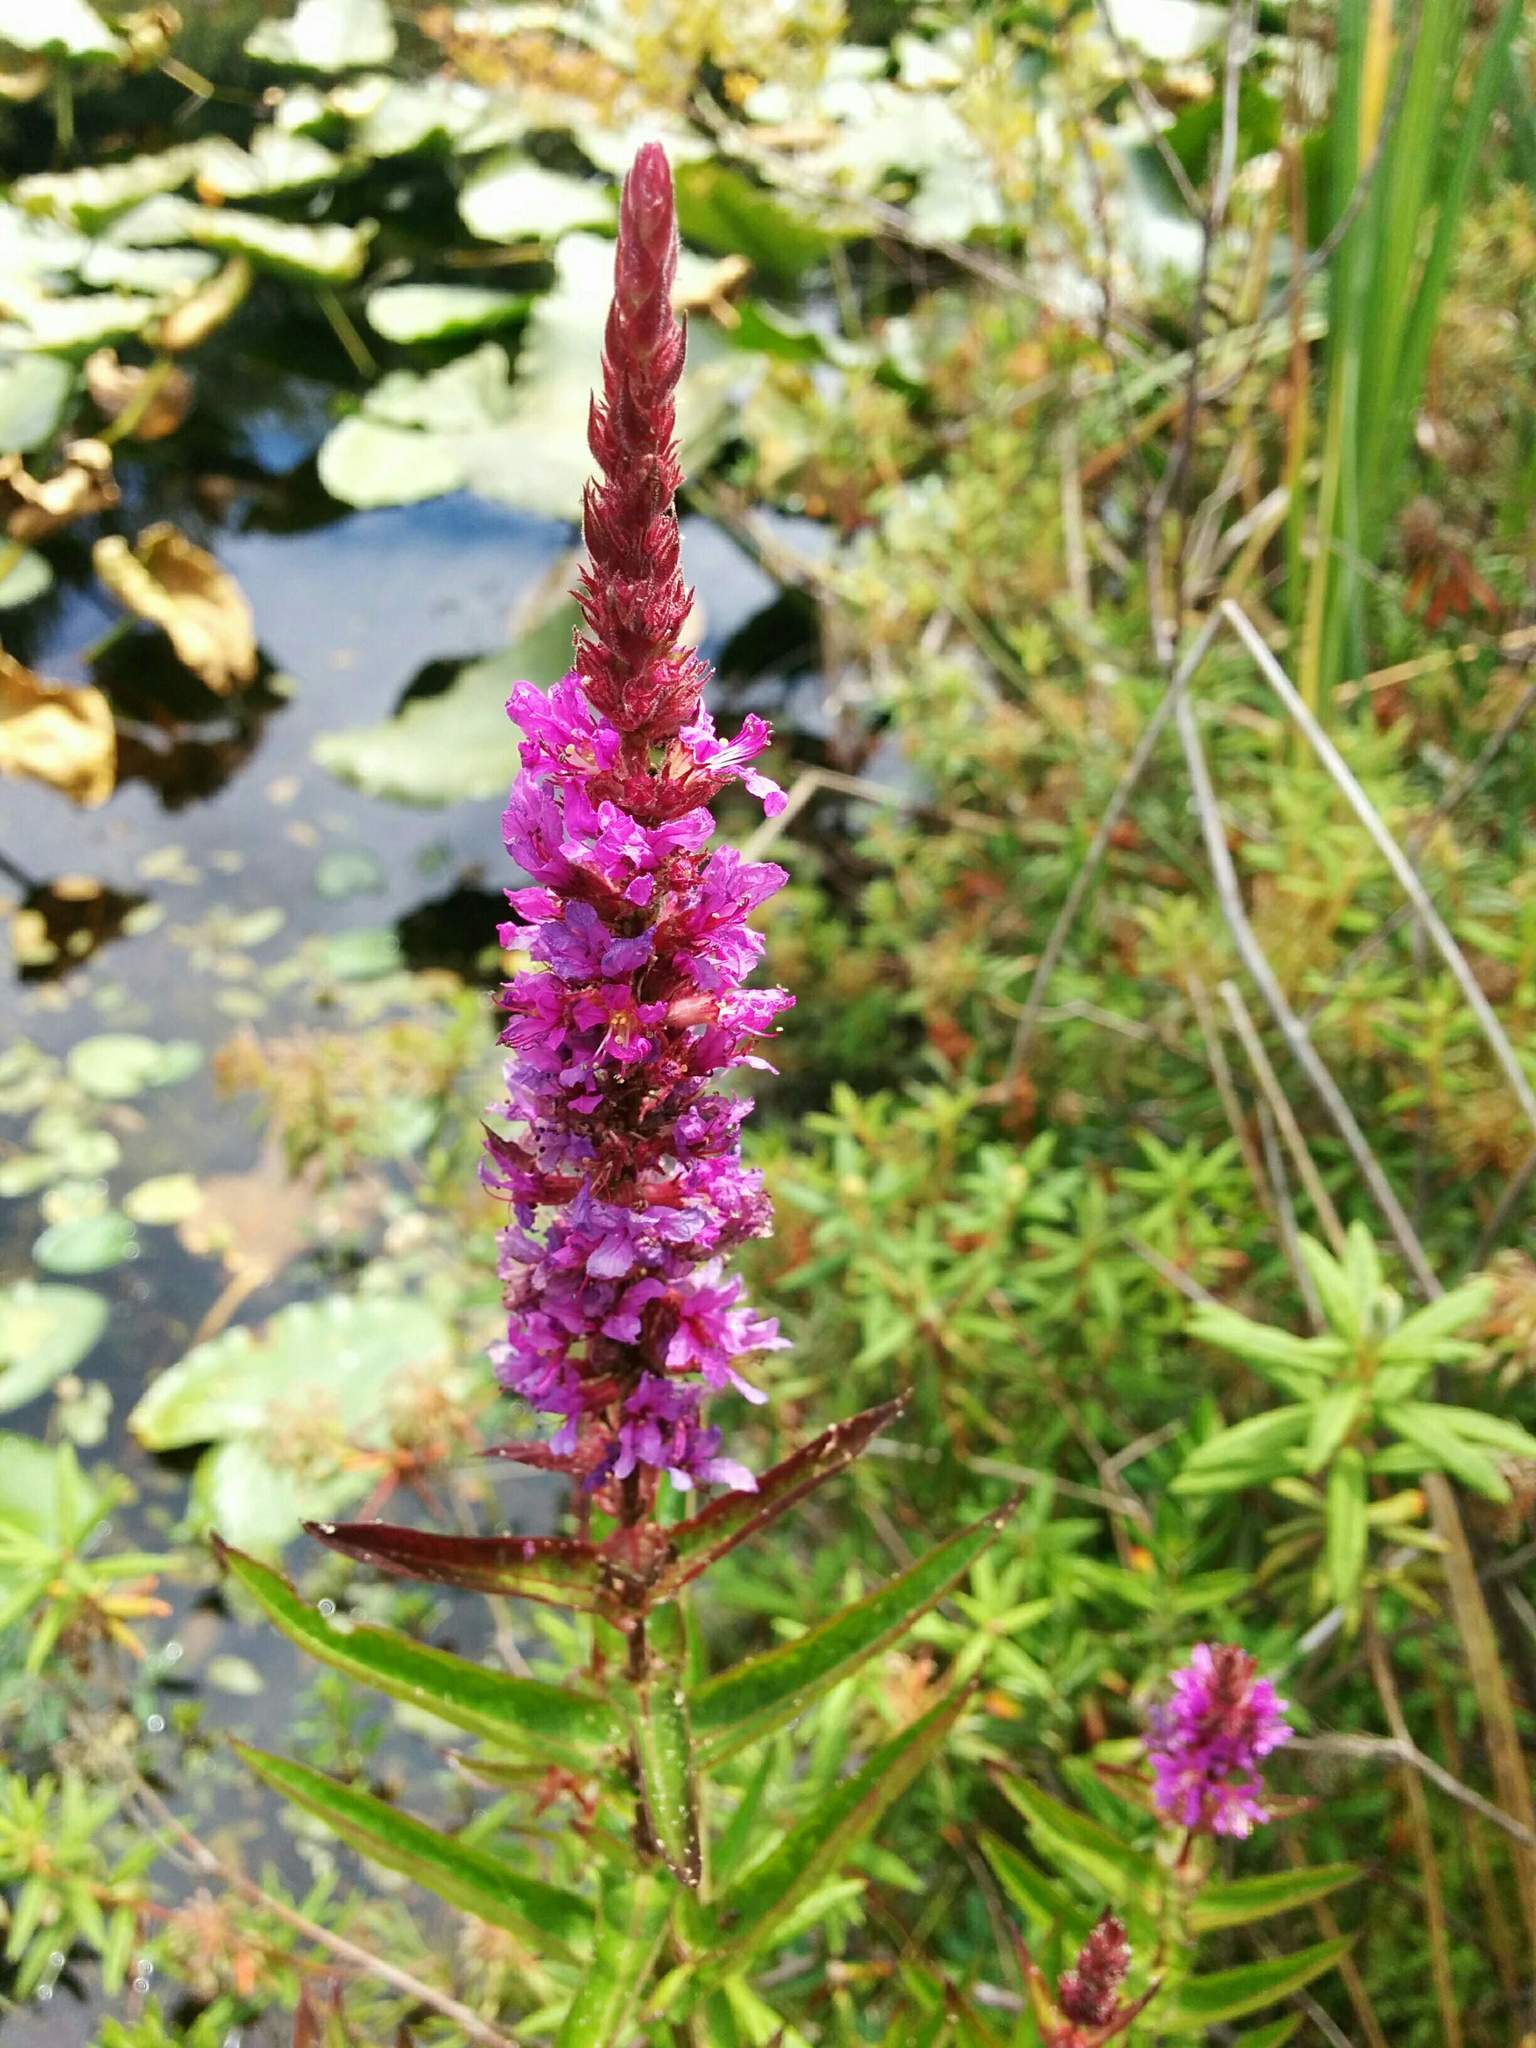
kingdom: Plantae
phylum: Tracheophyta
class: Magnoliopsida
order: Myrtales
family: Lythraceae
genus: Lythrum
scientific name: Lythrum salicaria
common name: Purple loosestrife
